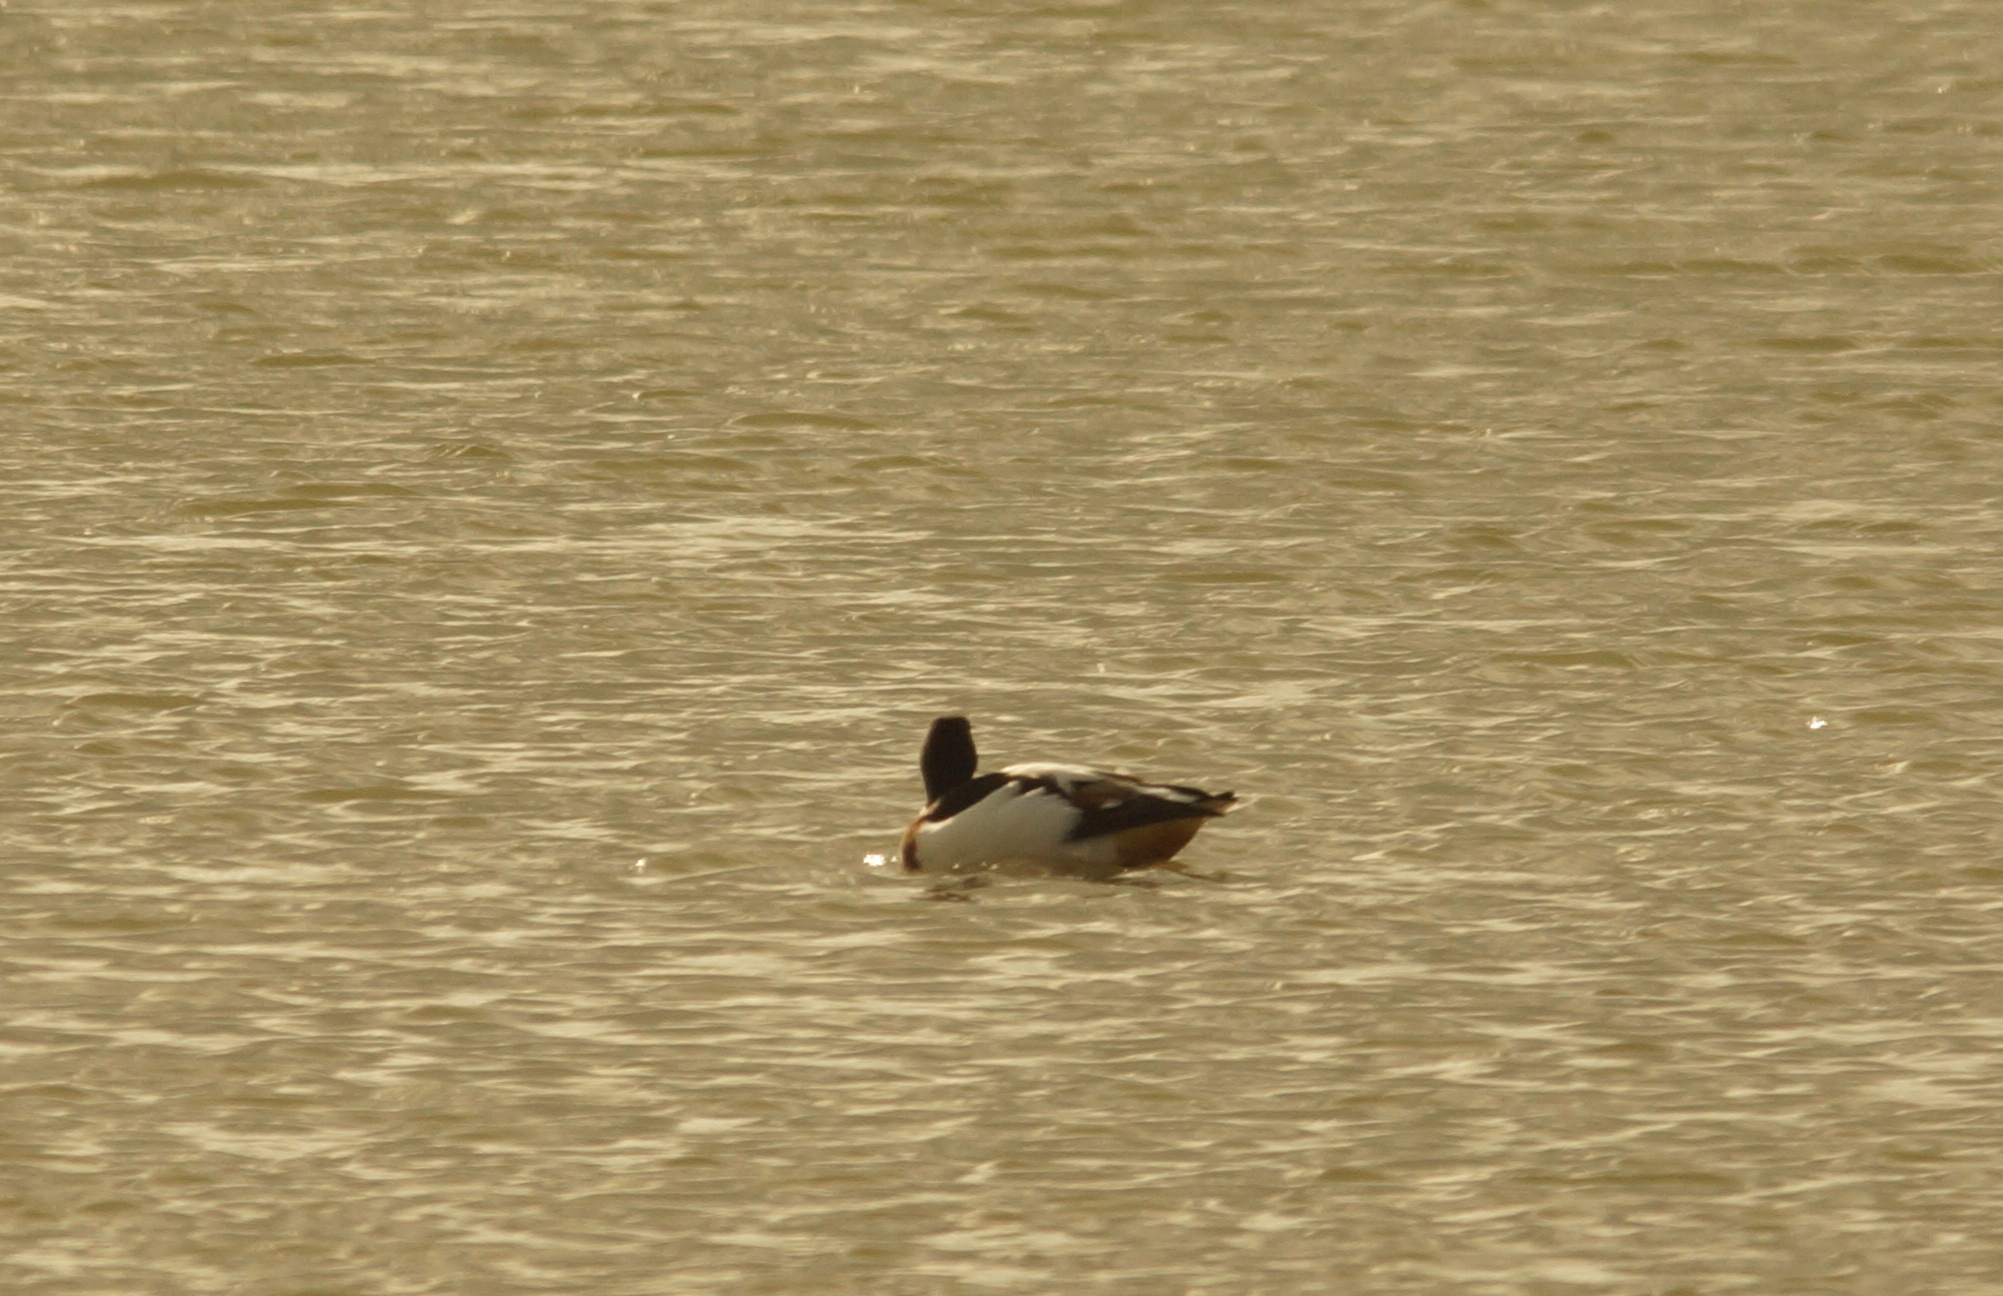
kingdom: Animalia
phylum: Chordata
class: Aves
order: Anseriformes
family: Anatidae
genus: Tadorna
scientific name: Tadorna tadorna
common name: Common shelduck
